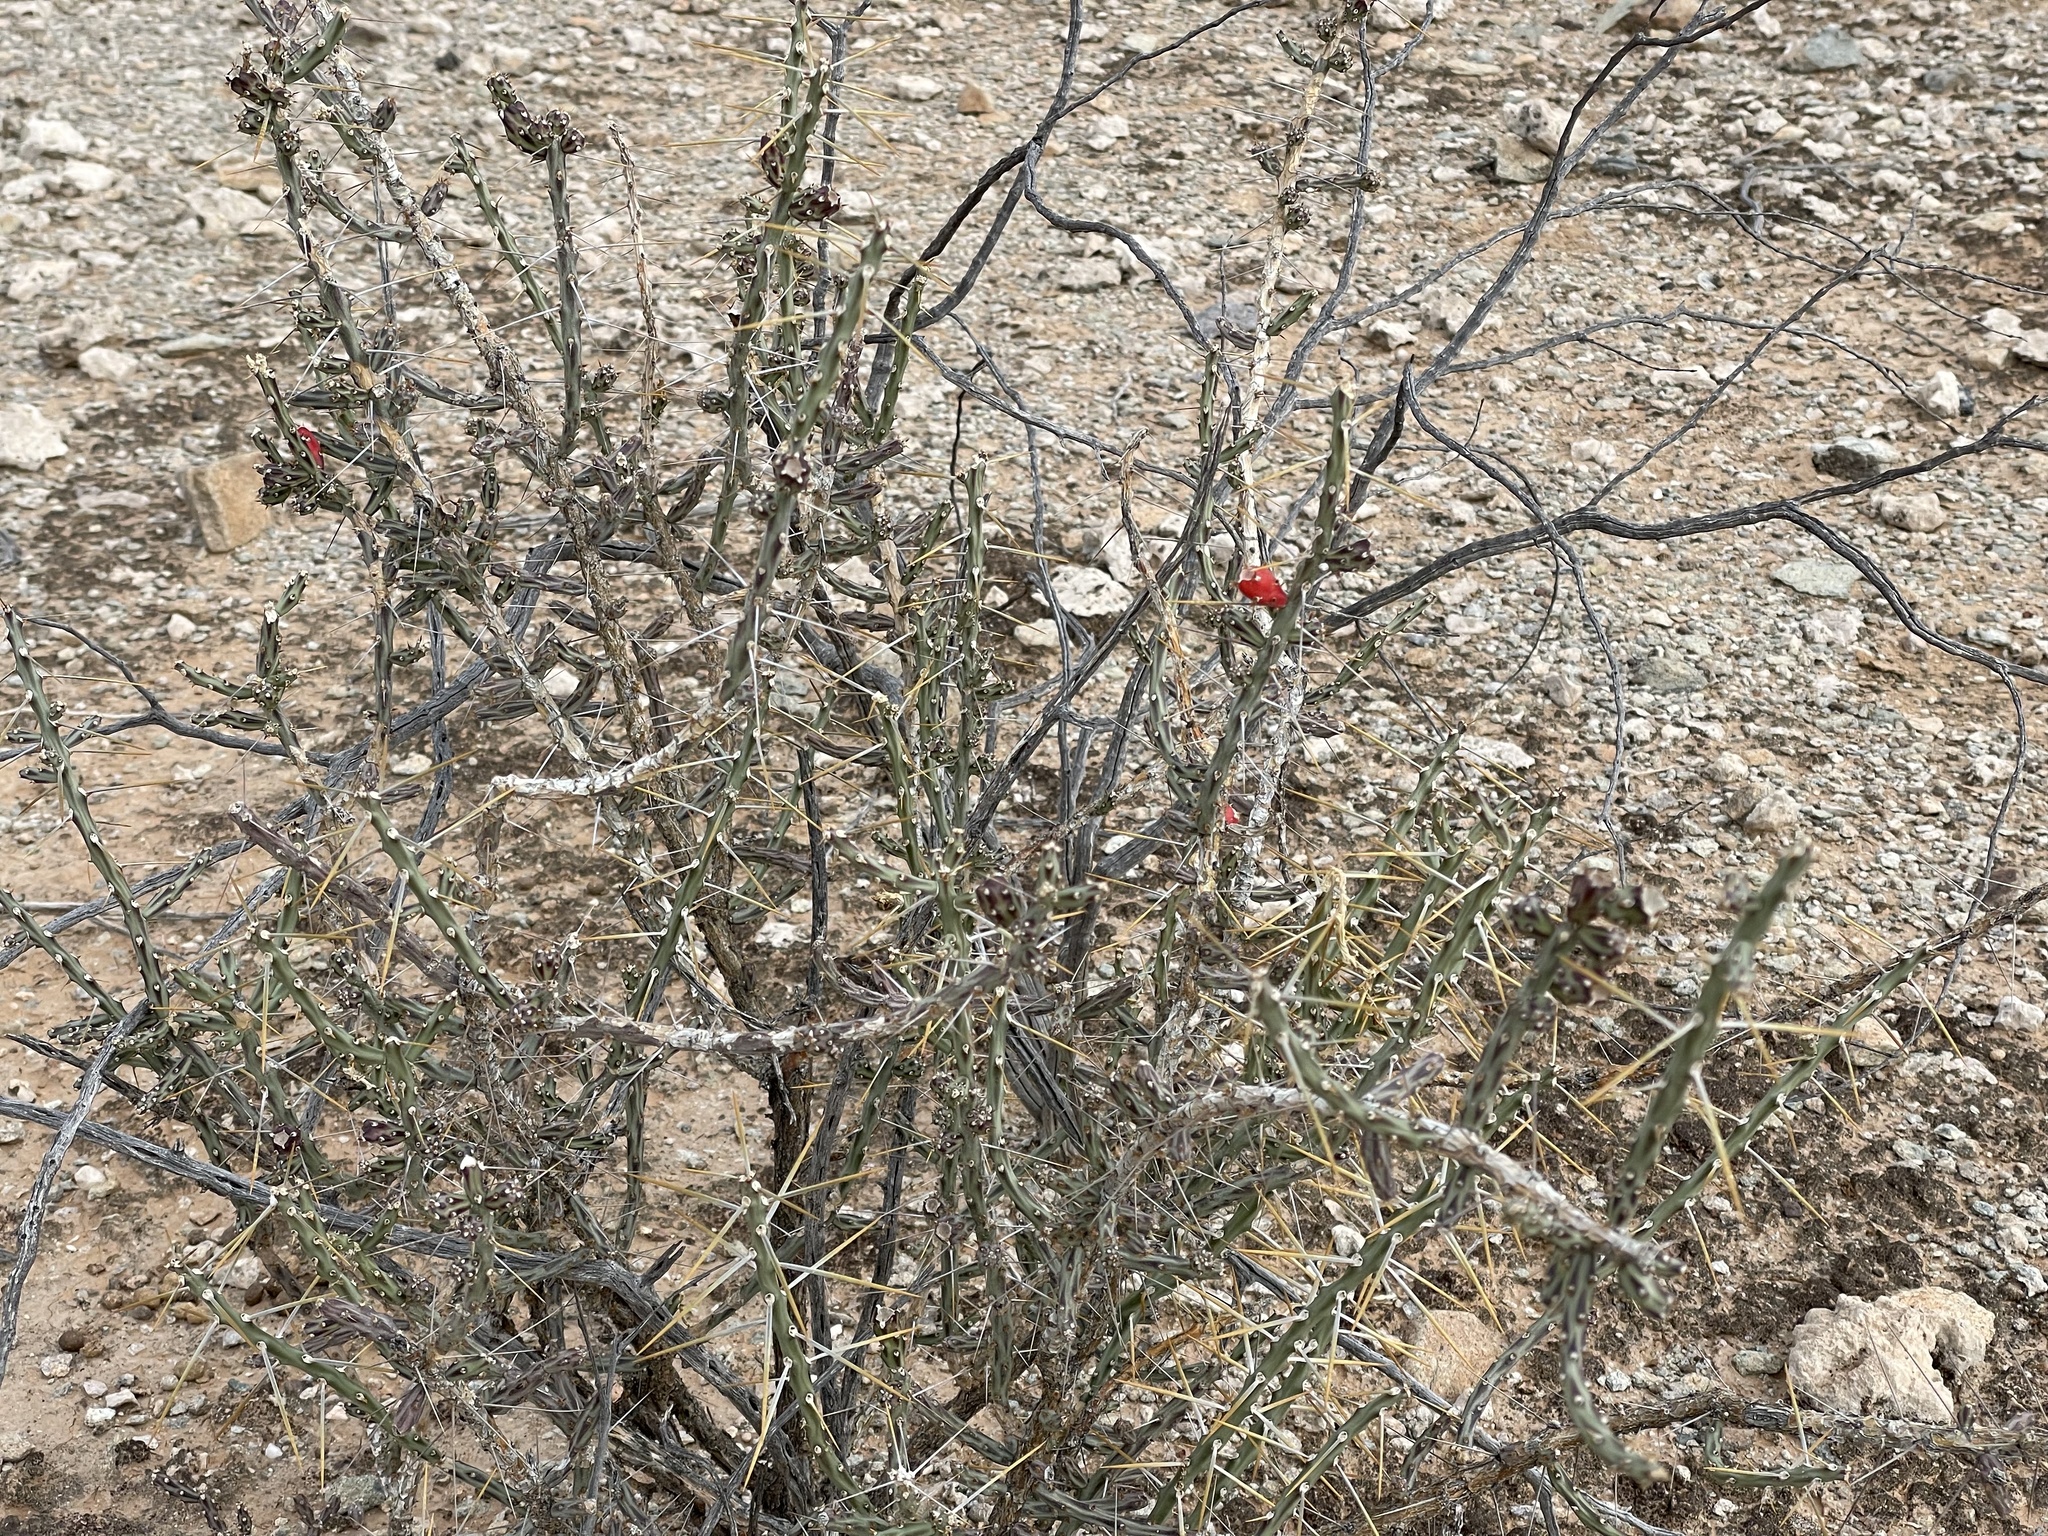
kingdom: Plantae
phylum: Tracheophyta
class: Magnoliopsida
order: Caryophyllales
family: Cactaceae
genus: Cylindropuntia
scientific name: Cylindropuntia leptocaulis
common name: Christmas cactus
